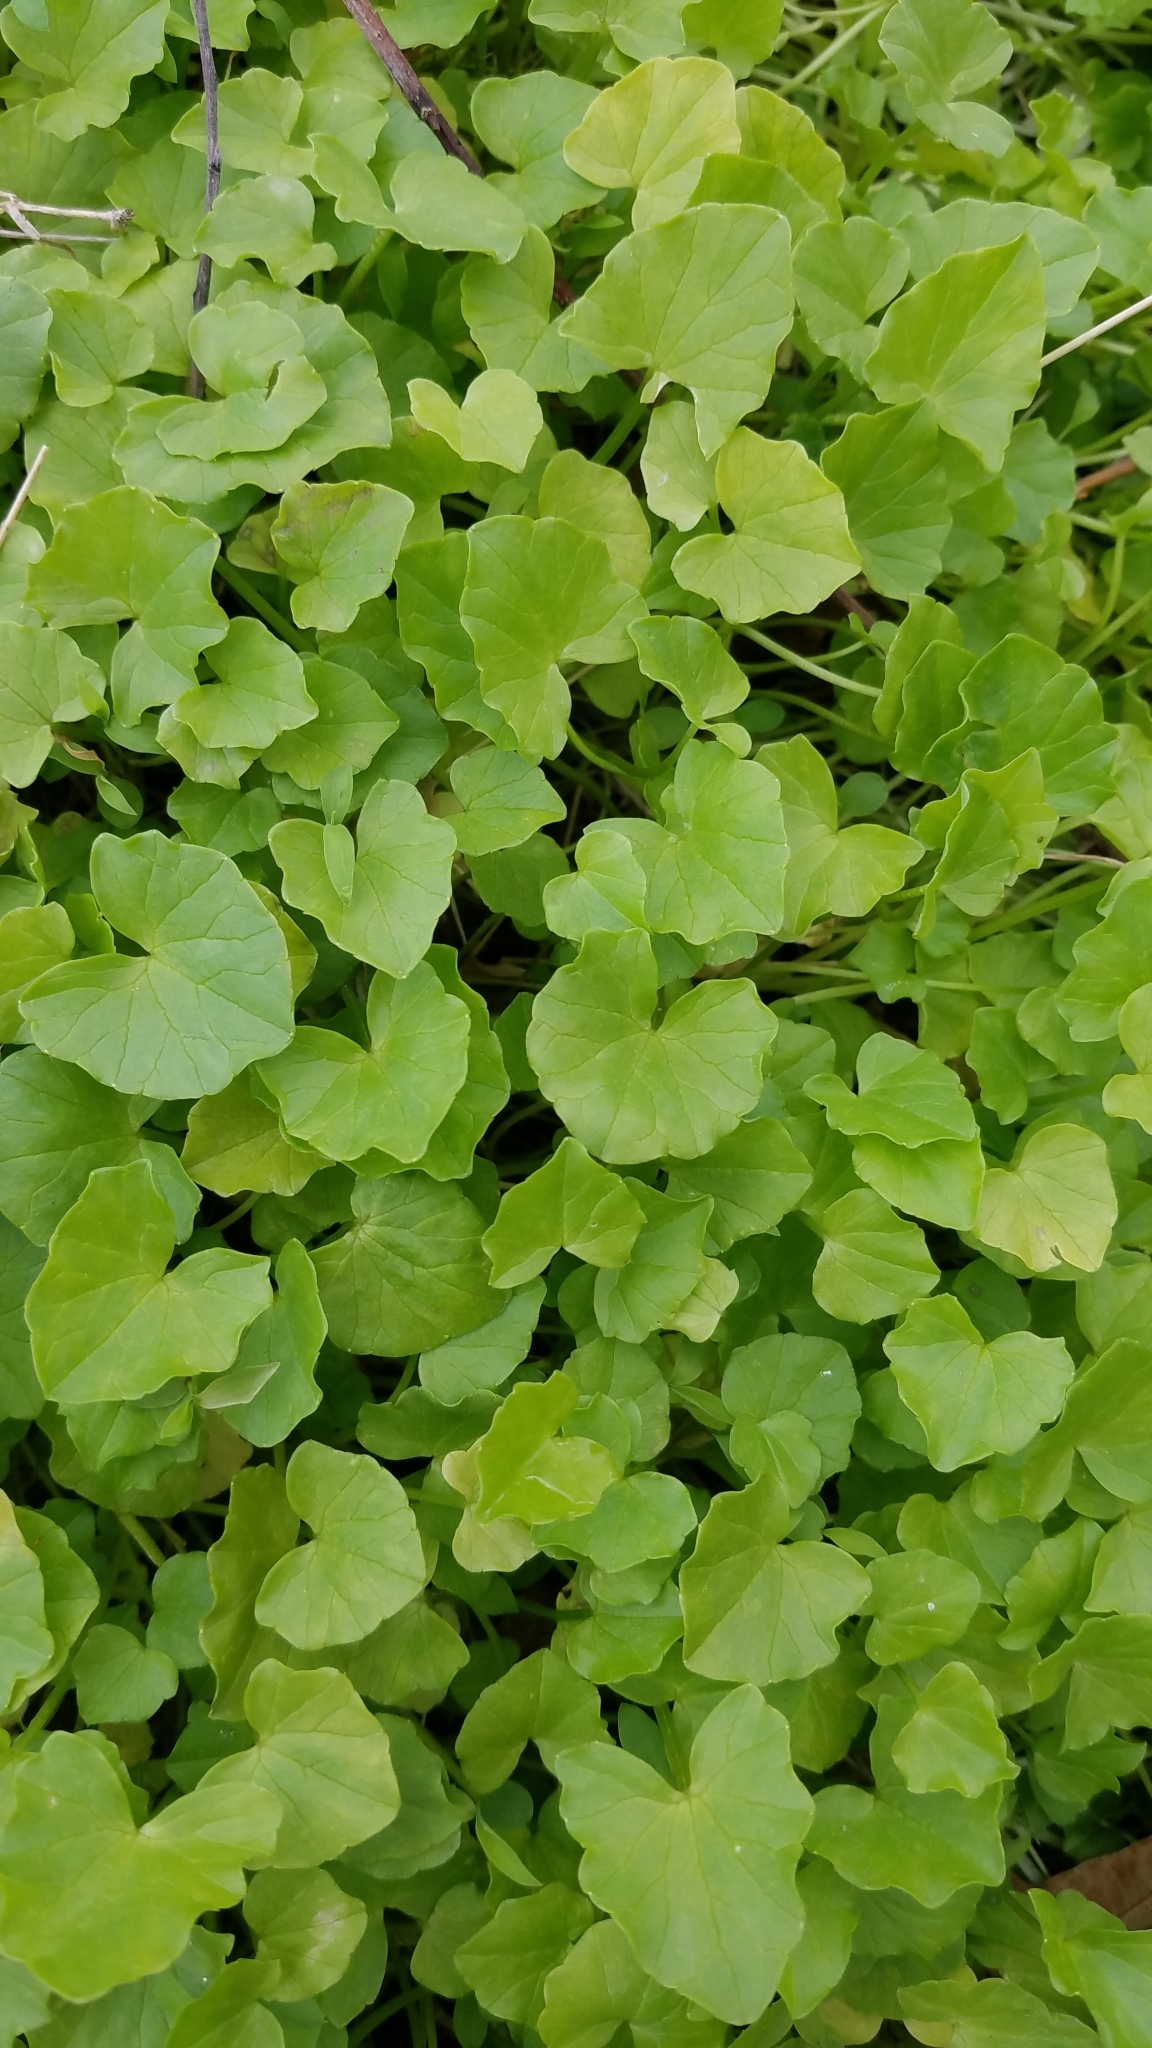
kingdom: Plantae
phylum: Tracheophyta
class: Magnoliopsida
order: Ranunculales
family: Ranunculaceae
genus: Ficaria
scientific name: Ficaria verna
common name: Lesser celandine
